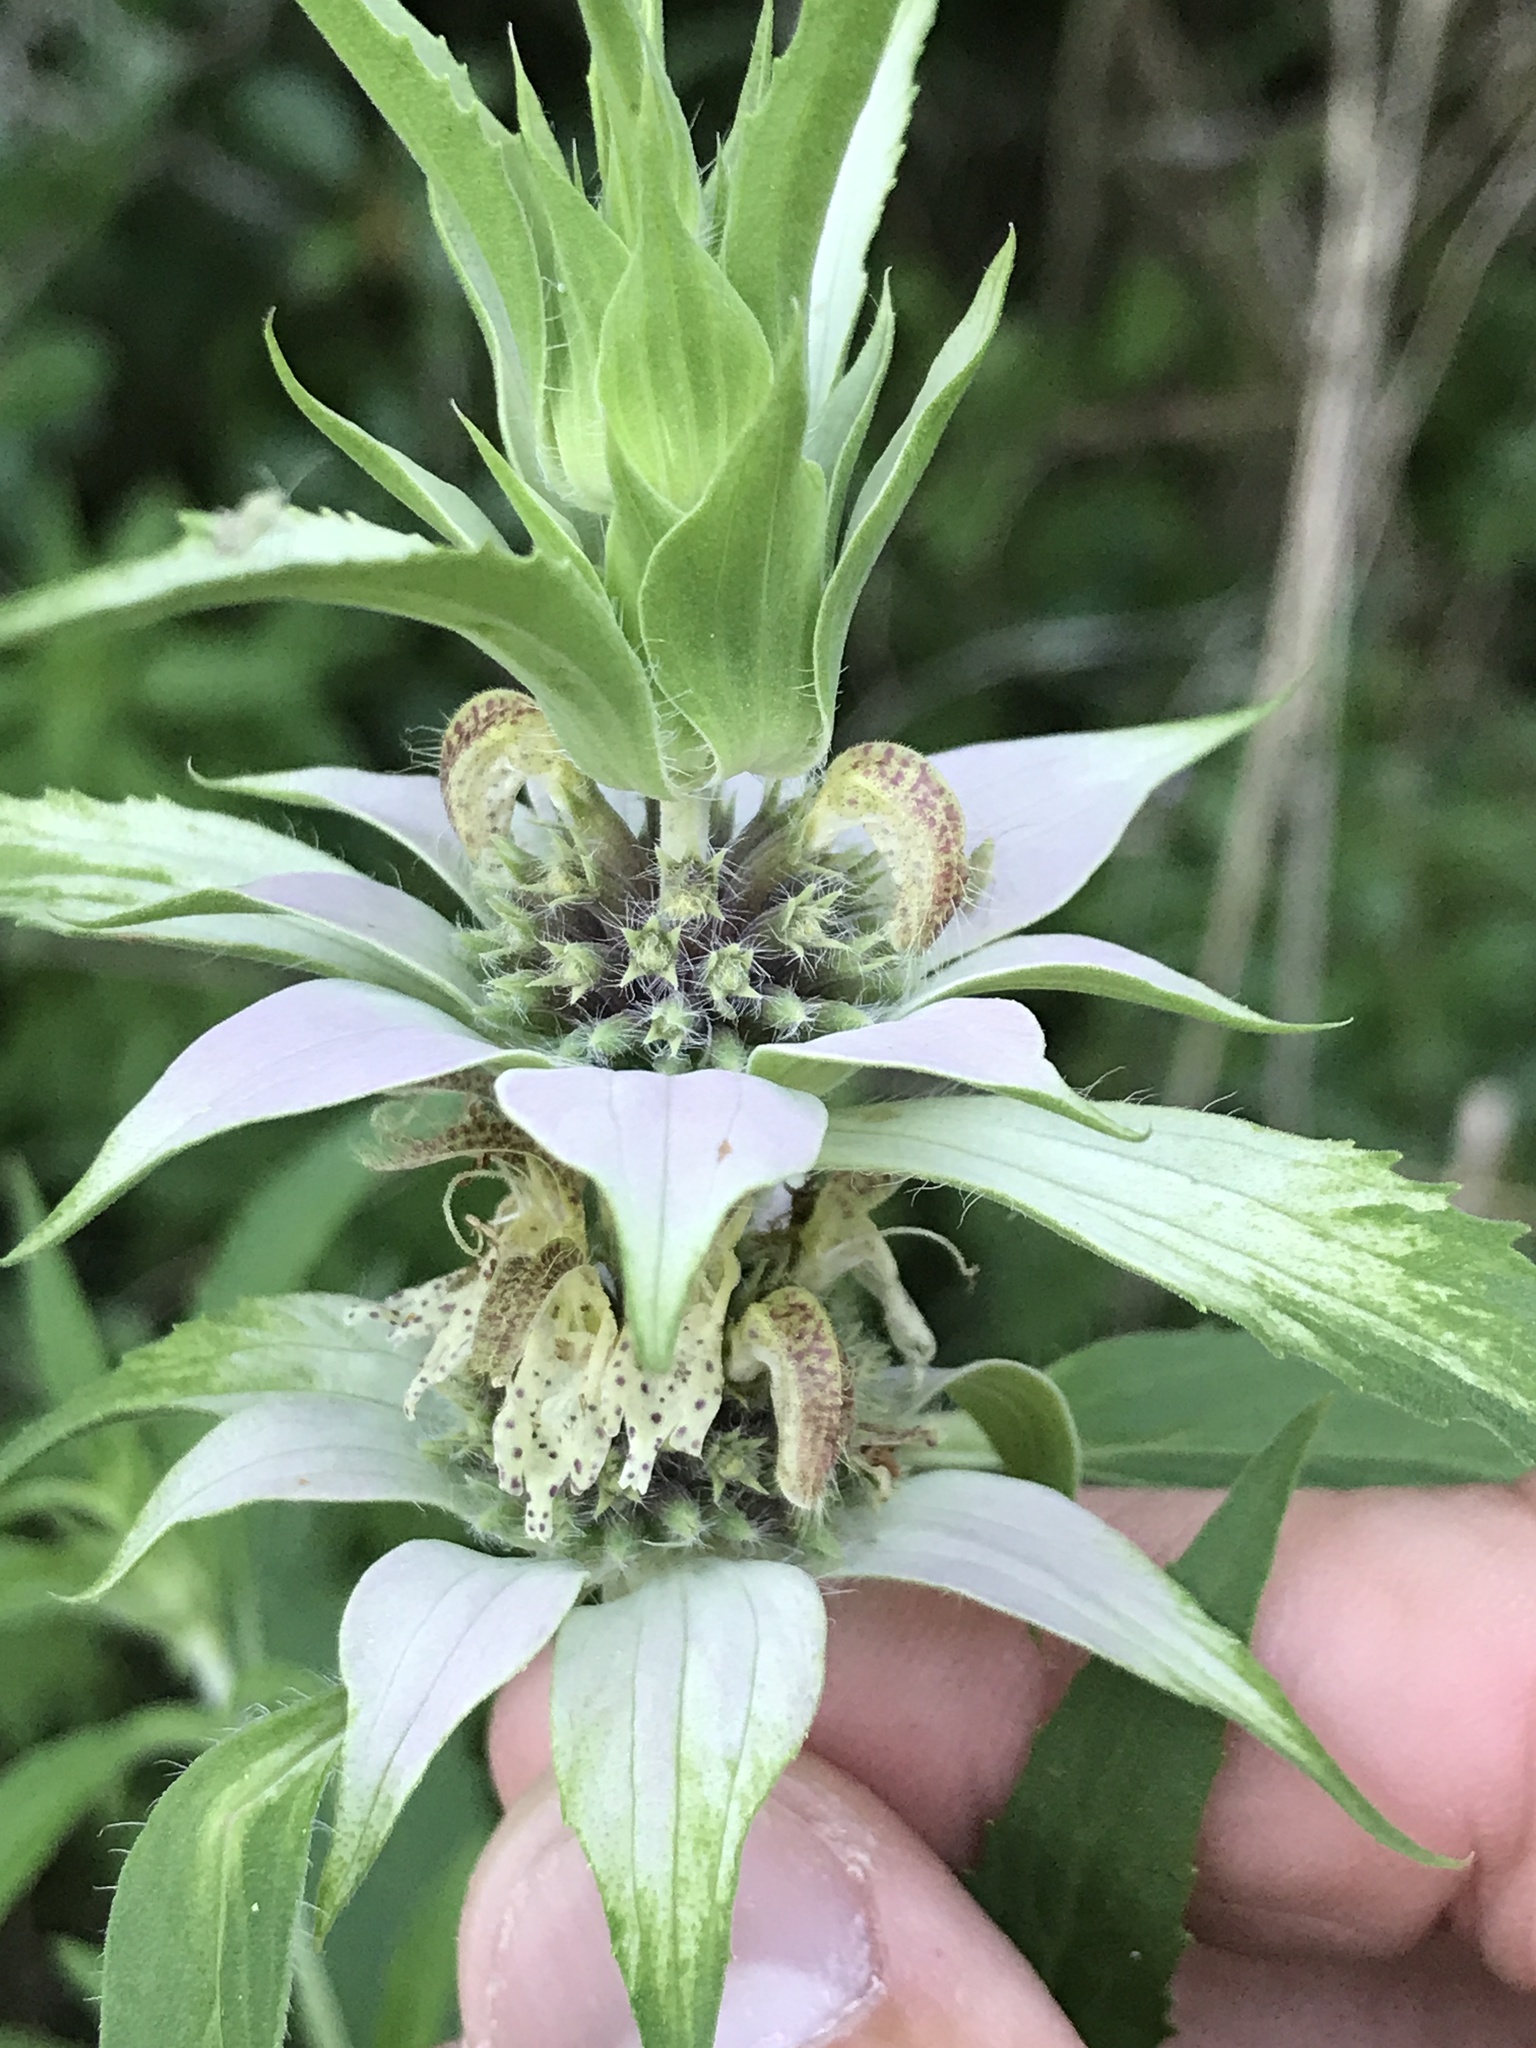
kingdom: Plantae
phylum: Tracheophyta
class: Magnoliopsida
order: Lamiales
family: Lamiaceae
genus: Monarda
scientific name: Monarda punctata
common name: Dotted monarda
